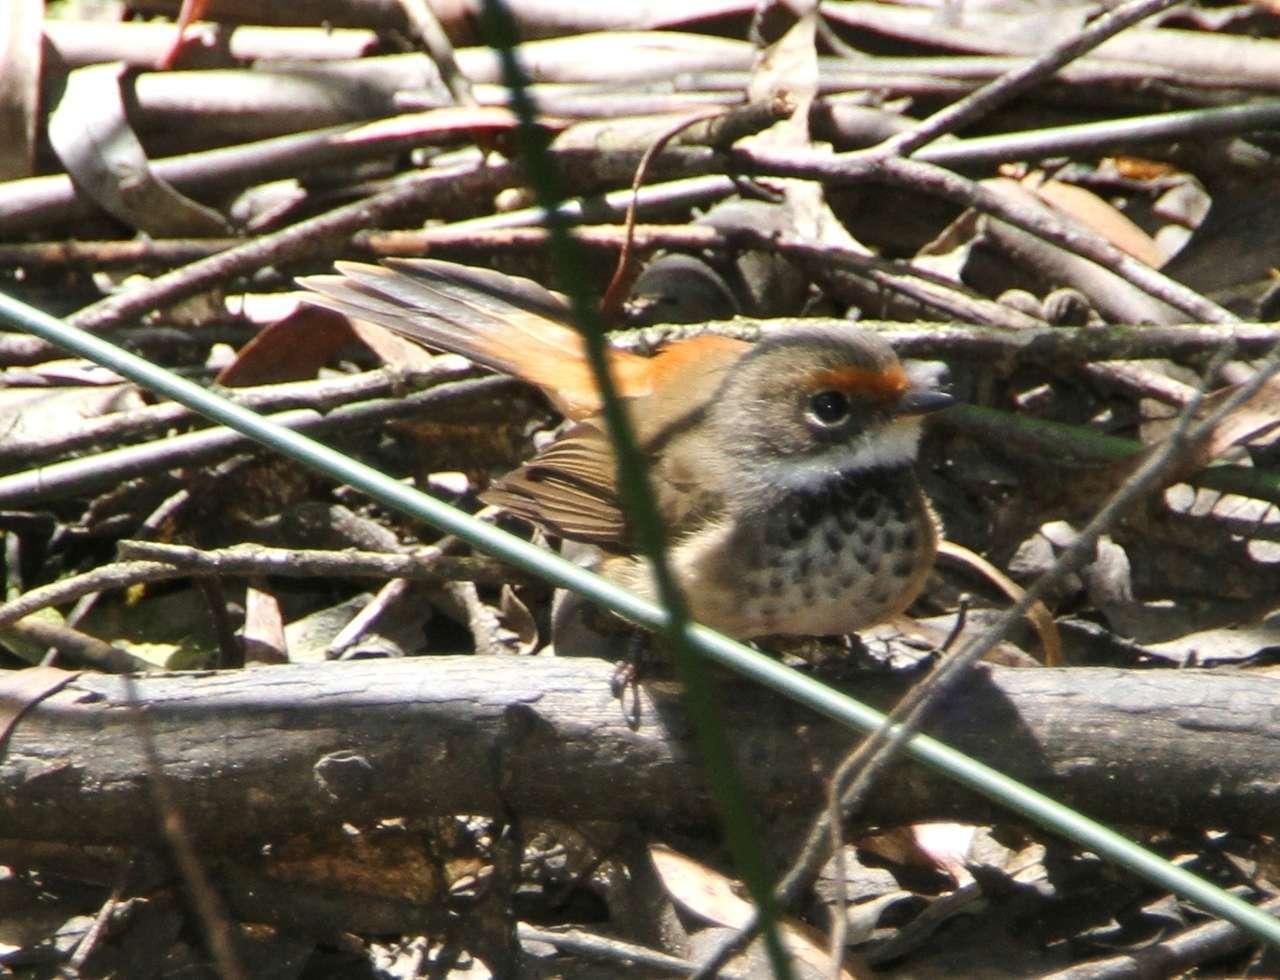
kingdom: Animalia
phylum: Chordata
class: Aves
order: Passeriformes
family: Rhipiduridae
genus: Rhipidura
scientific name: Rhipidura rufifrons
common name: Rufous fantail
